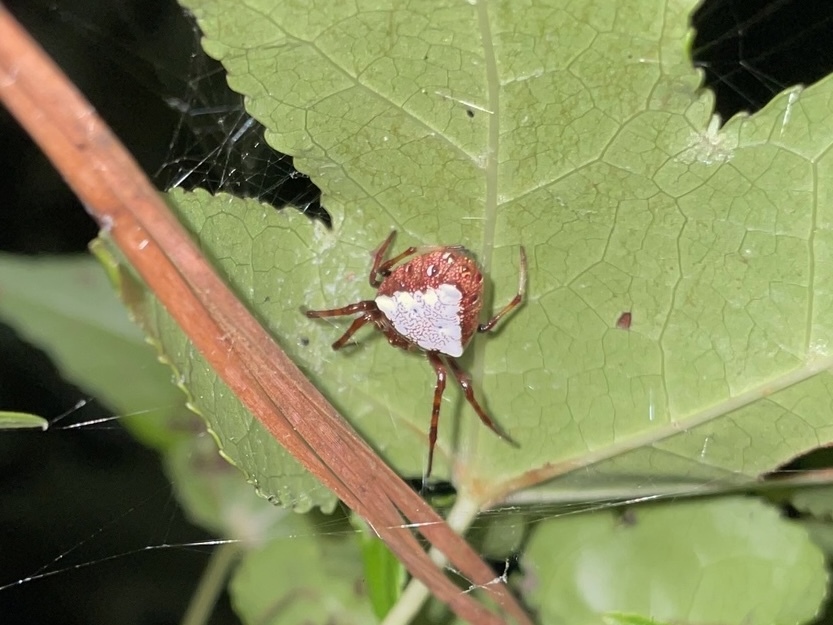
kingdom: Animalia
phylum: Arthropoda
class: Arachnida
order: Araneae
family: Araneidae
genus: Verrucosa
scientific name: Verrucosa arenata
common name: Orb weavers
